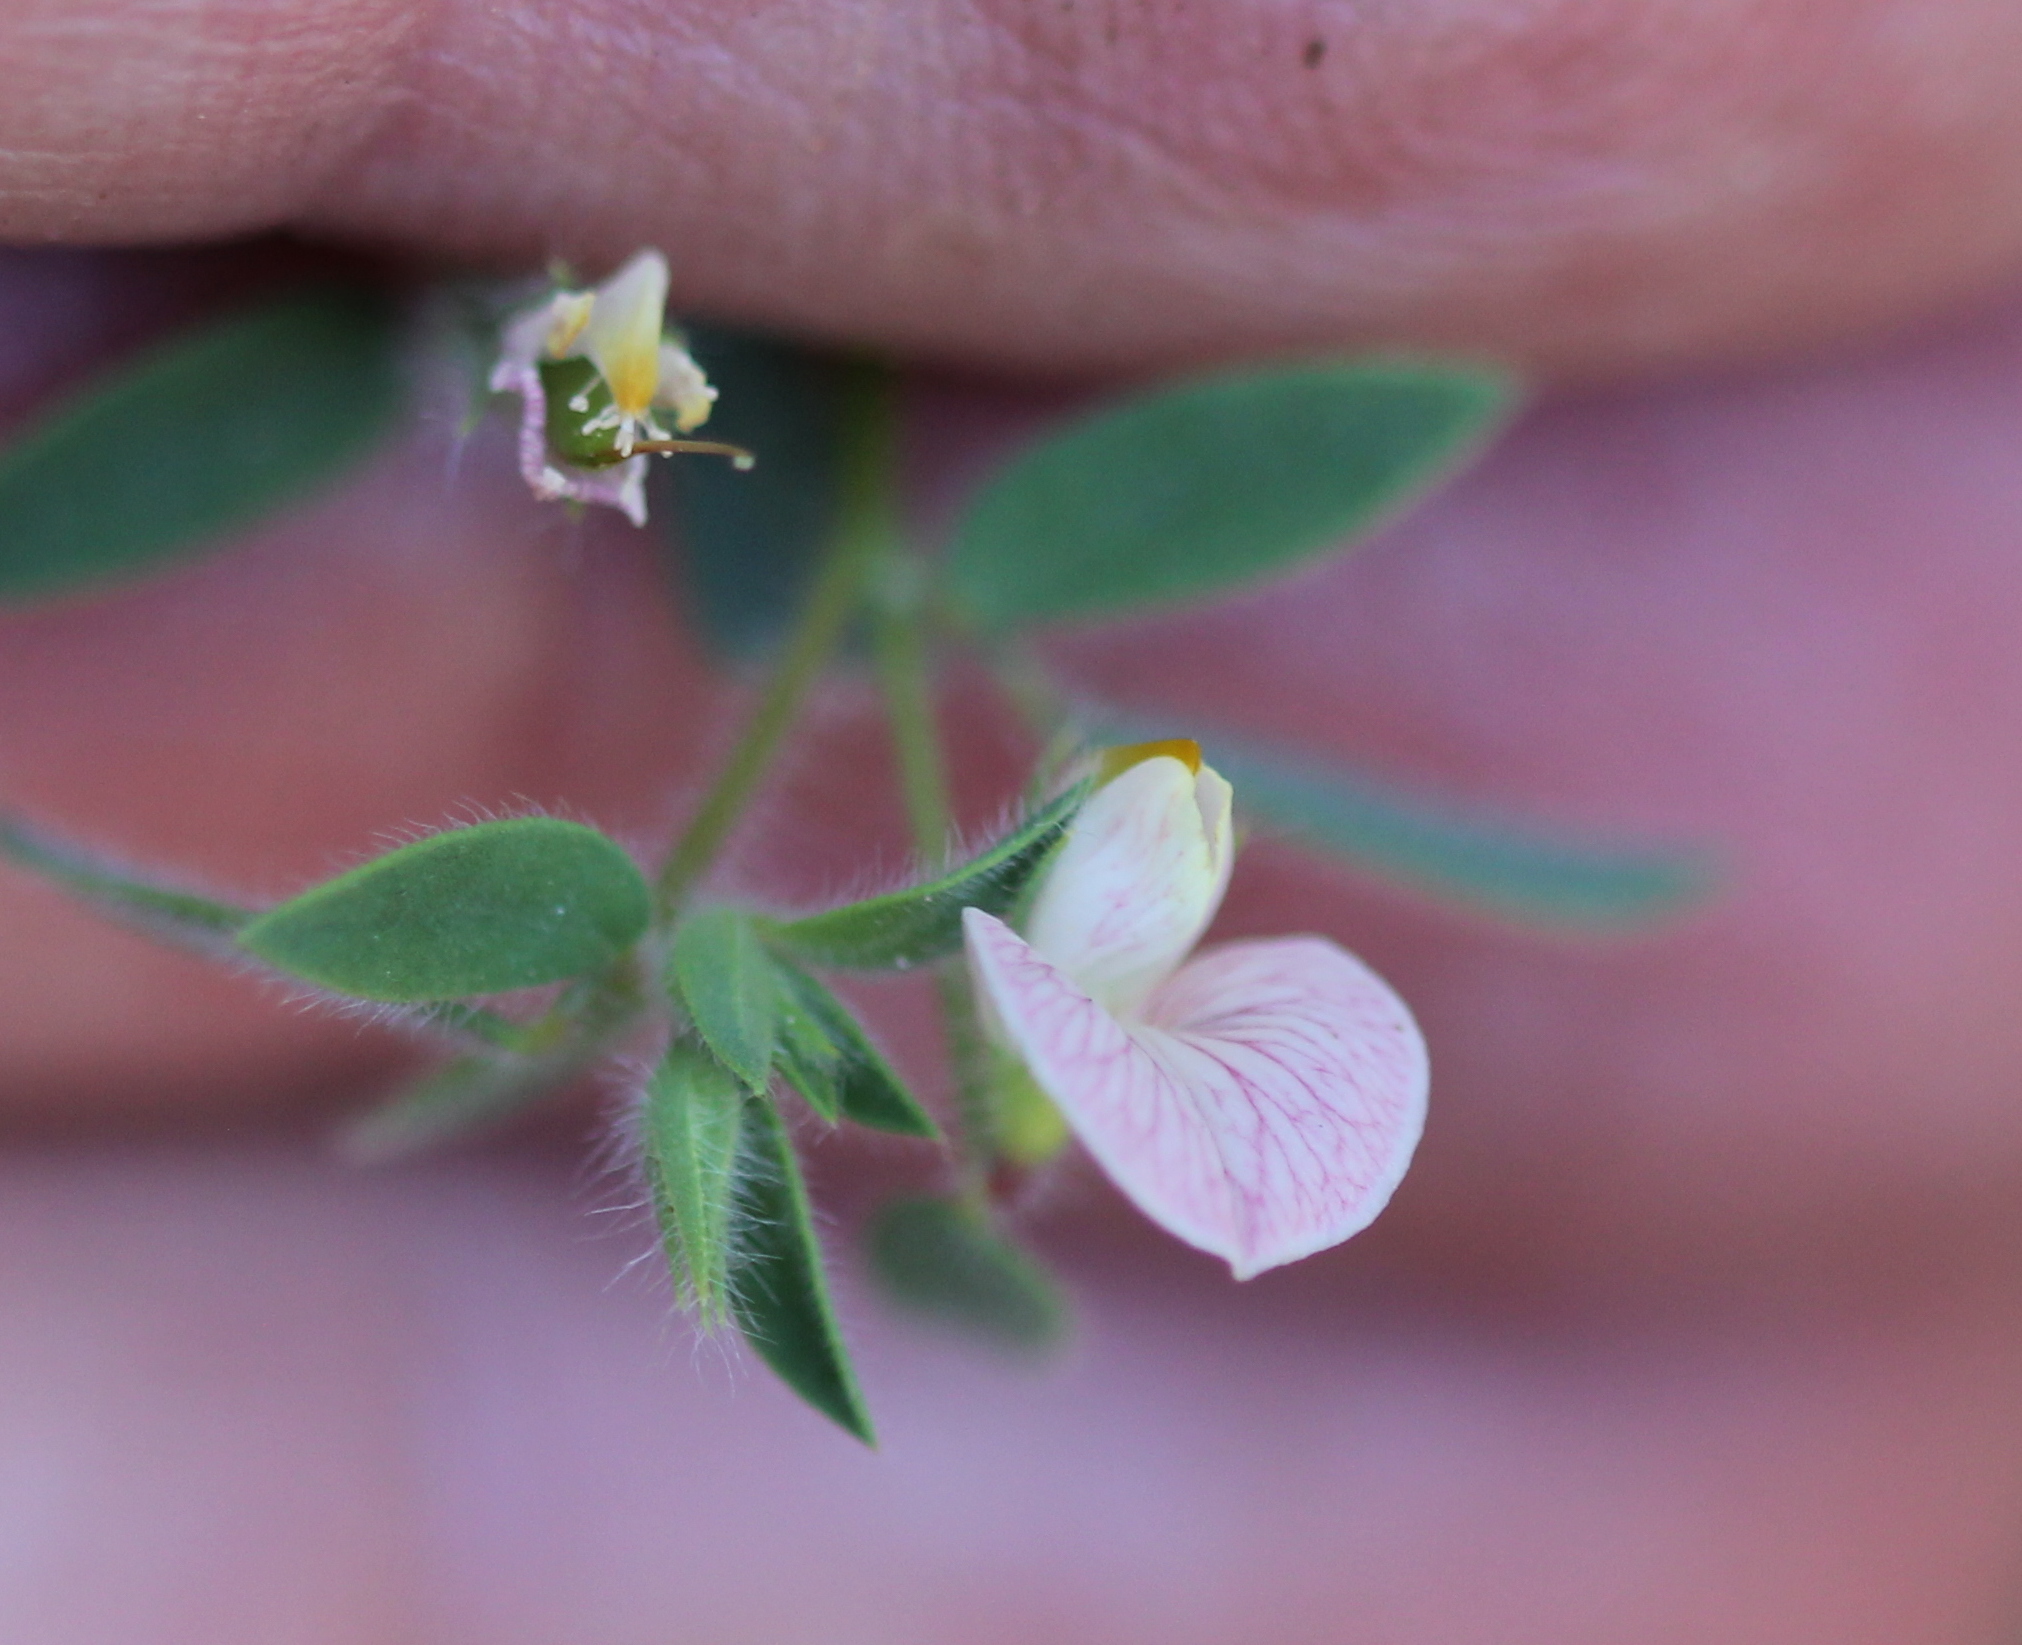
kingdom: Plantae
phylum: Tracheophyta
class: Magnoliopsida
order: Fabales
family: Fabaceae
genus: Acmispon
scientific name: Acmispon americanus
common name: American bird's-foot trefoil
